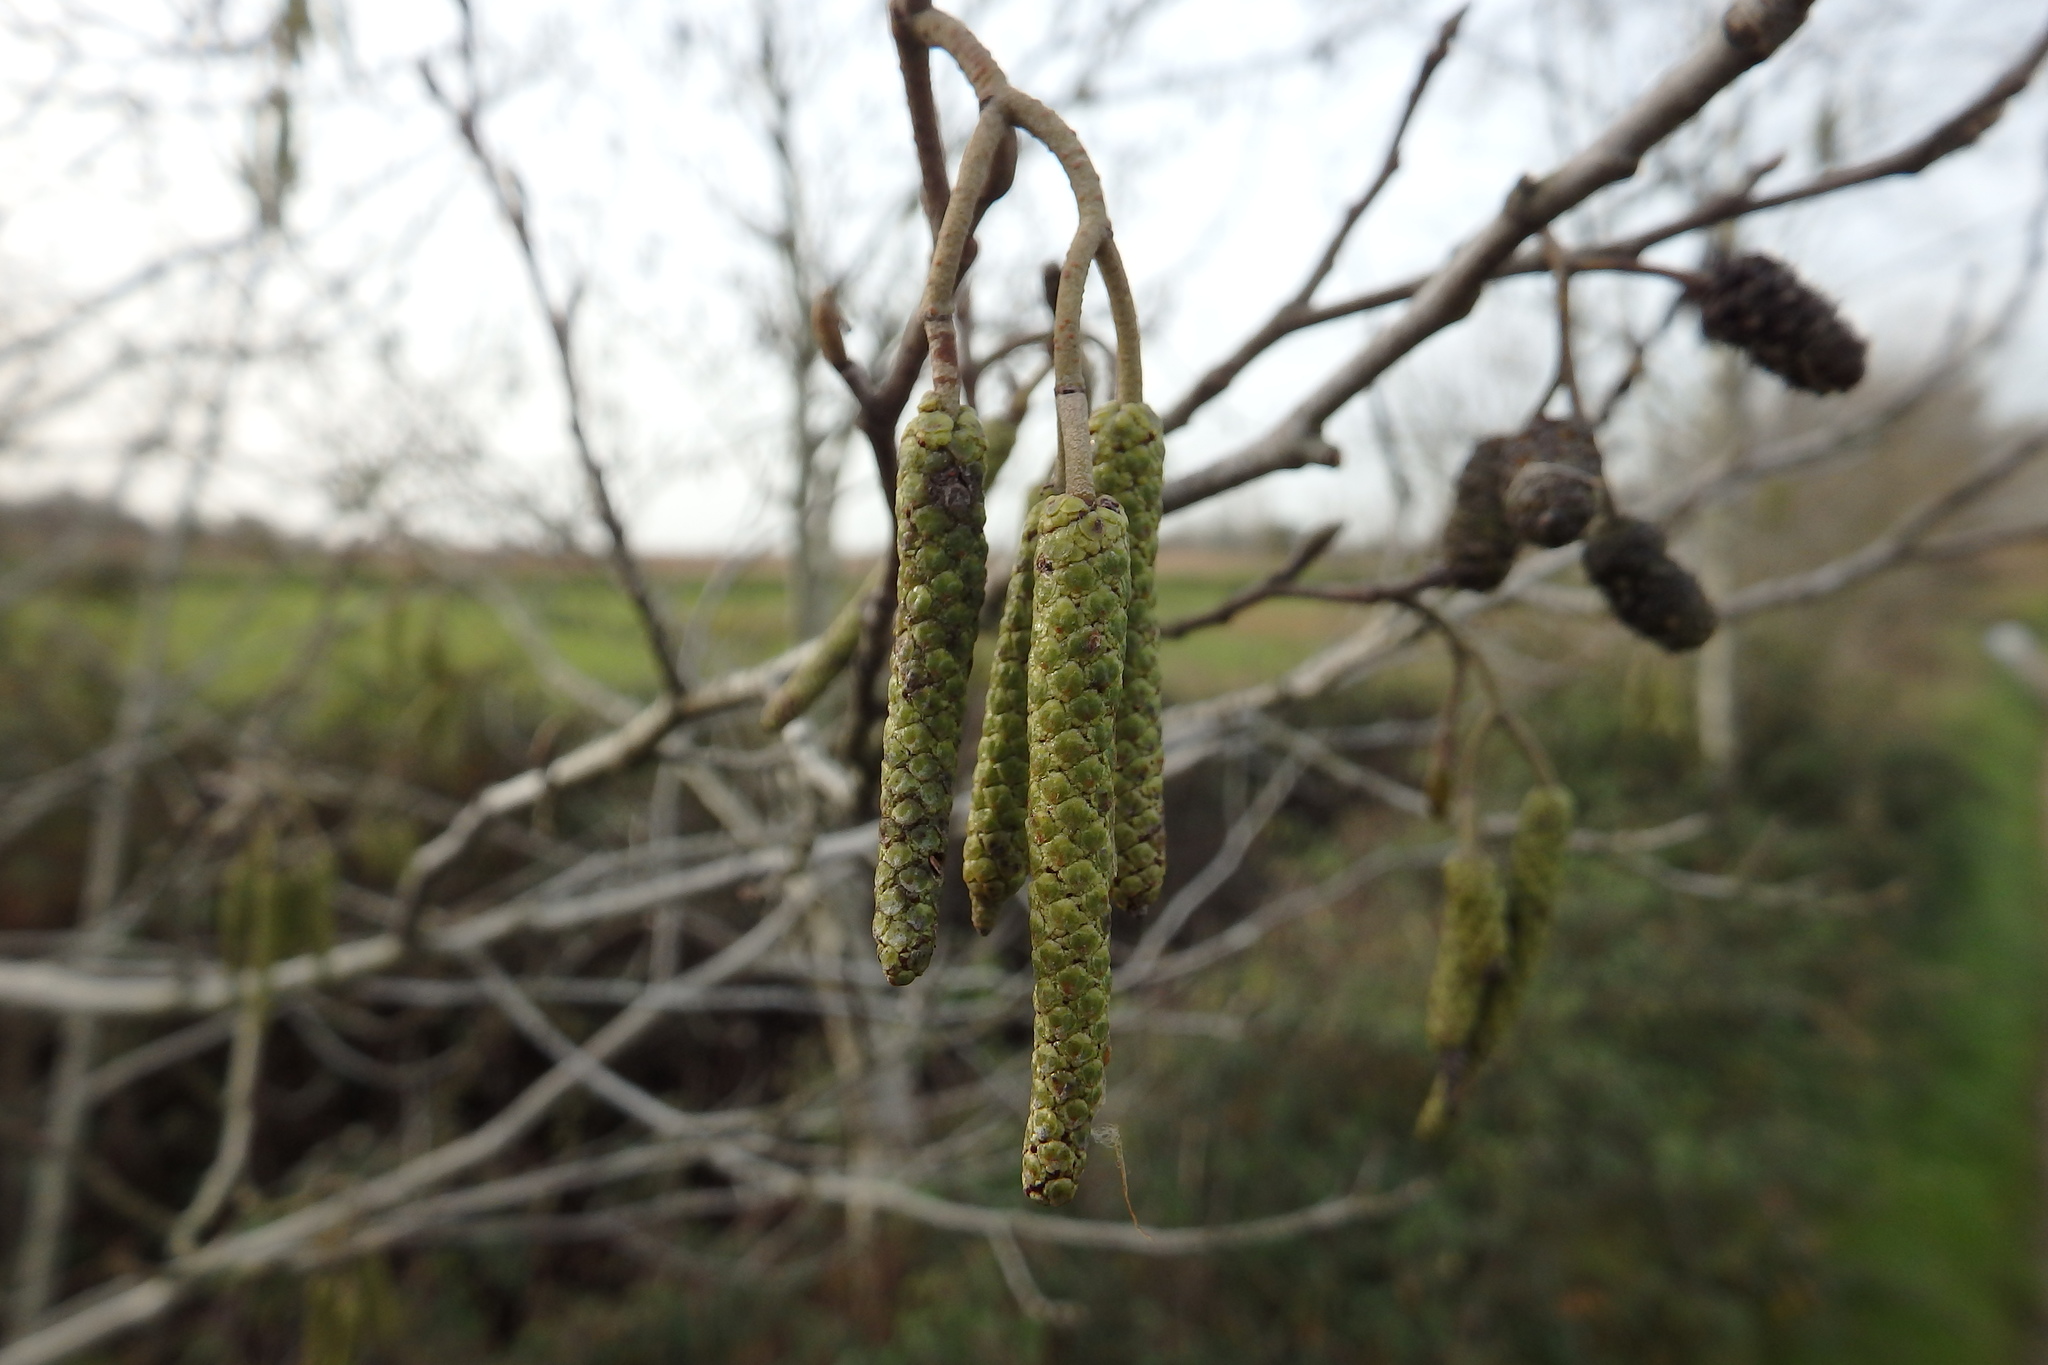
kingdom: Plantae
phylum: Tracheophyta
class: Magnoliopsida
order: Fagales
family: Betulaceae
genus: Alnus
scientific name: Alnus lusitanica
